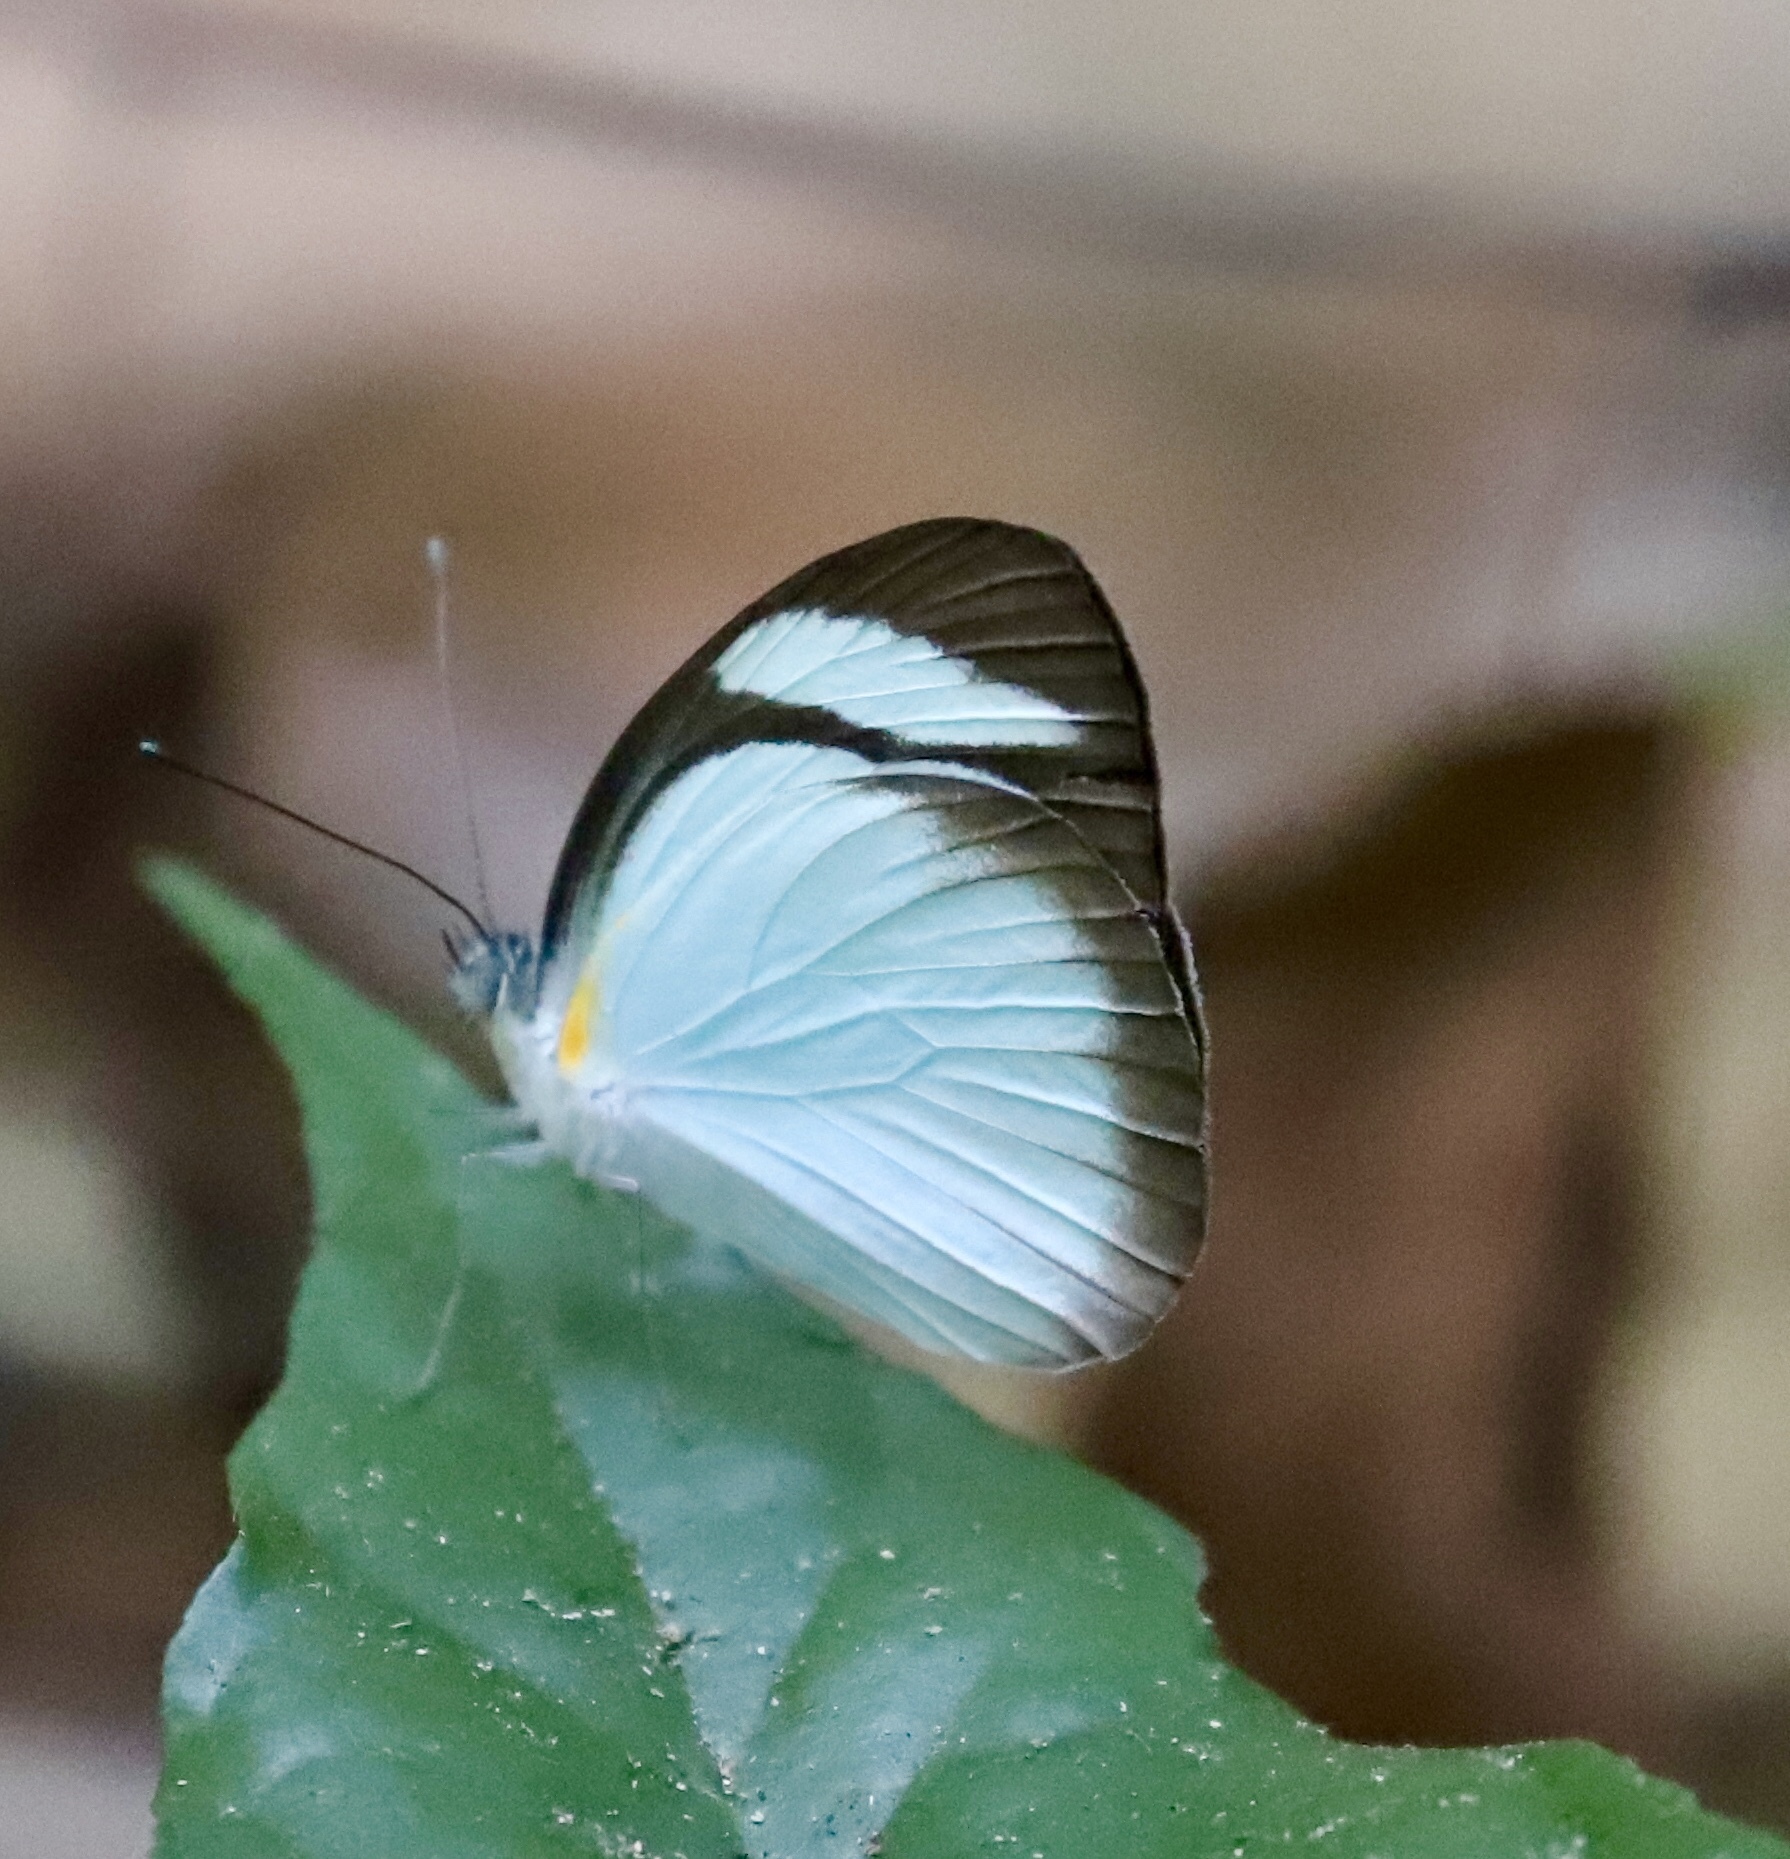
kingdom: Animalia
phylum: Arthropoda
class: Insecta
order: Lepidoptera
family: Pieridae
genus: Itaballia
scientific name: Itaballia demophile
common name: Cross-barred white
